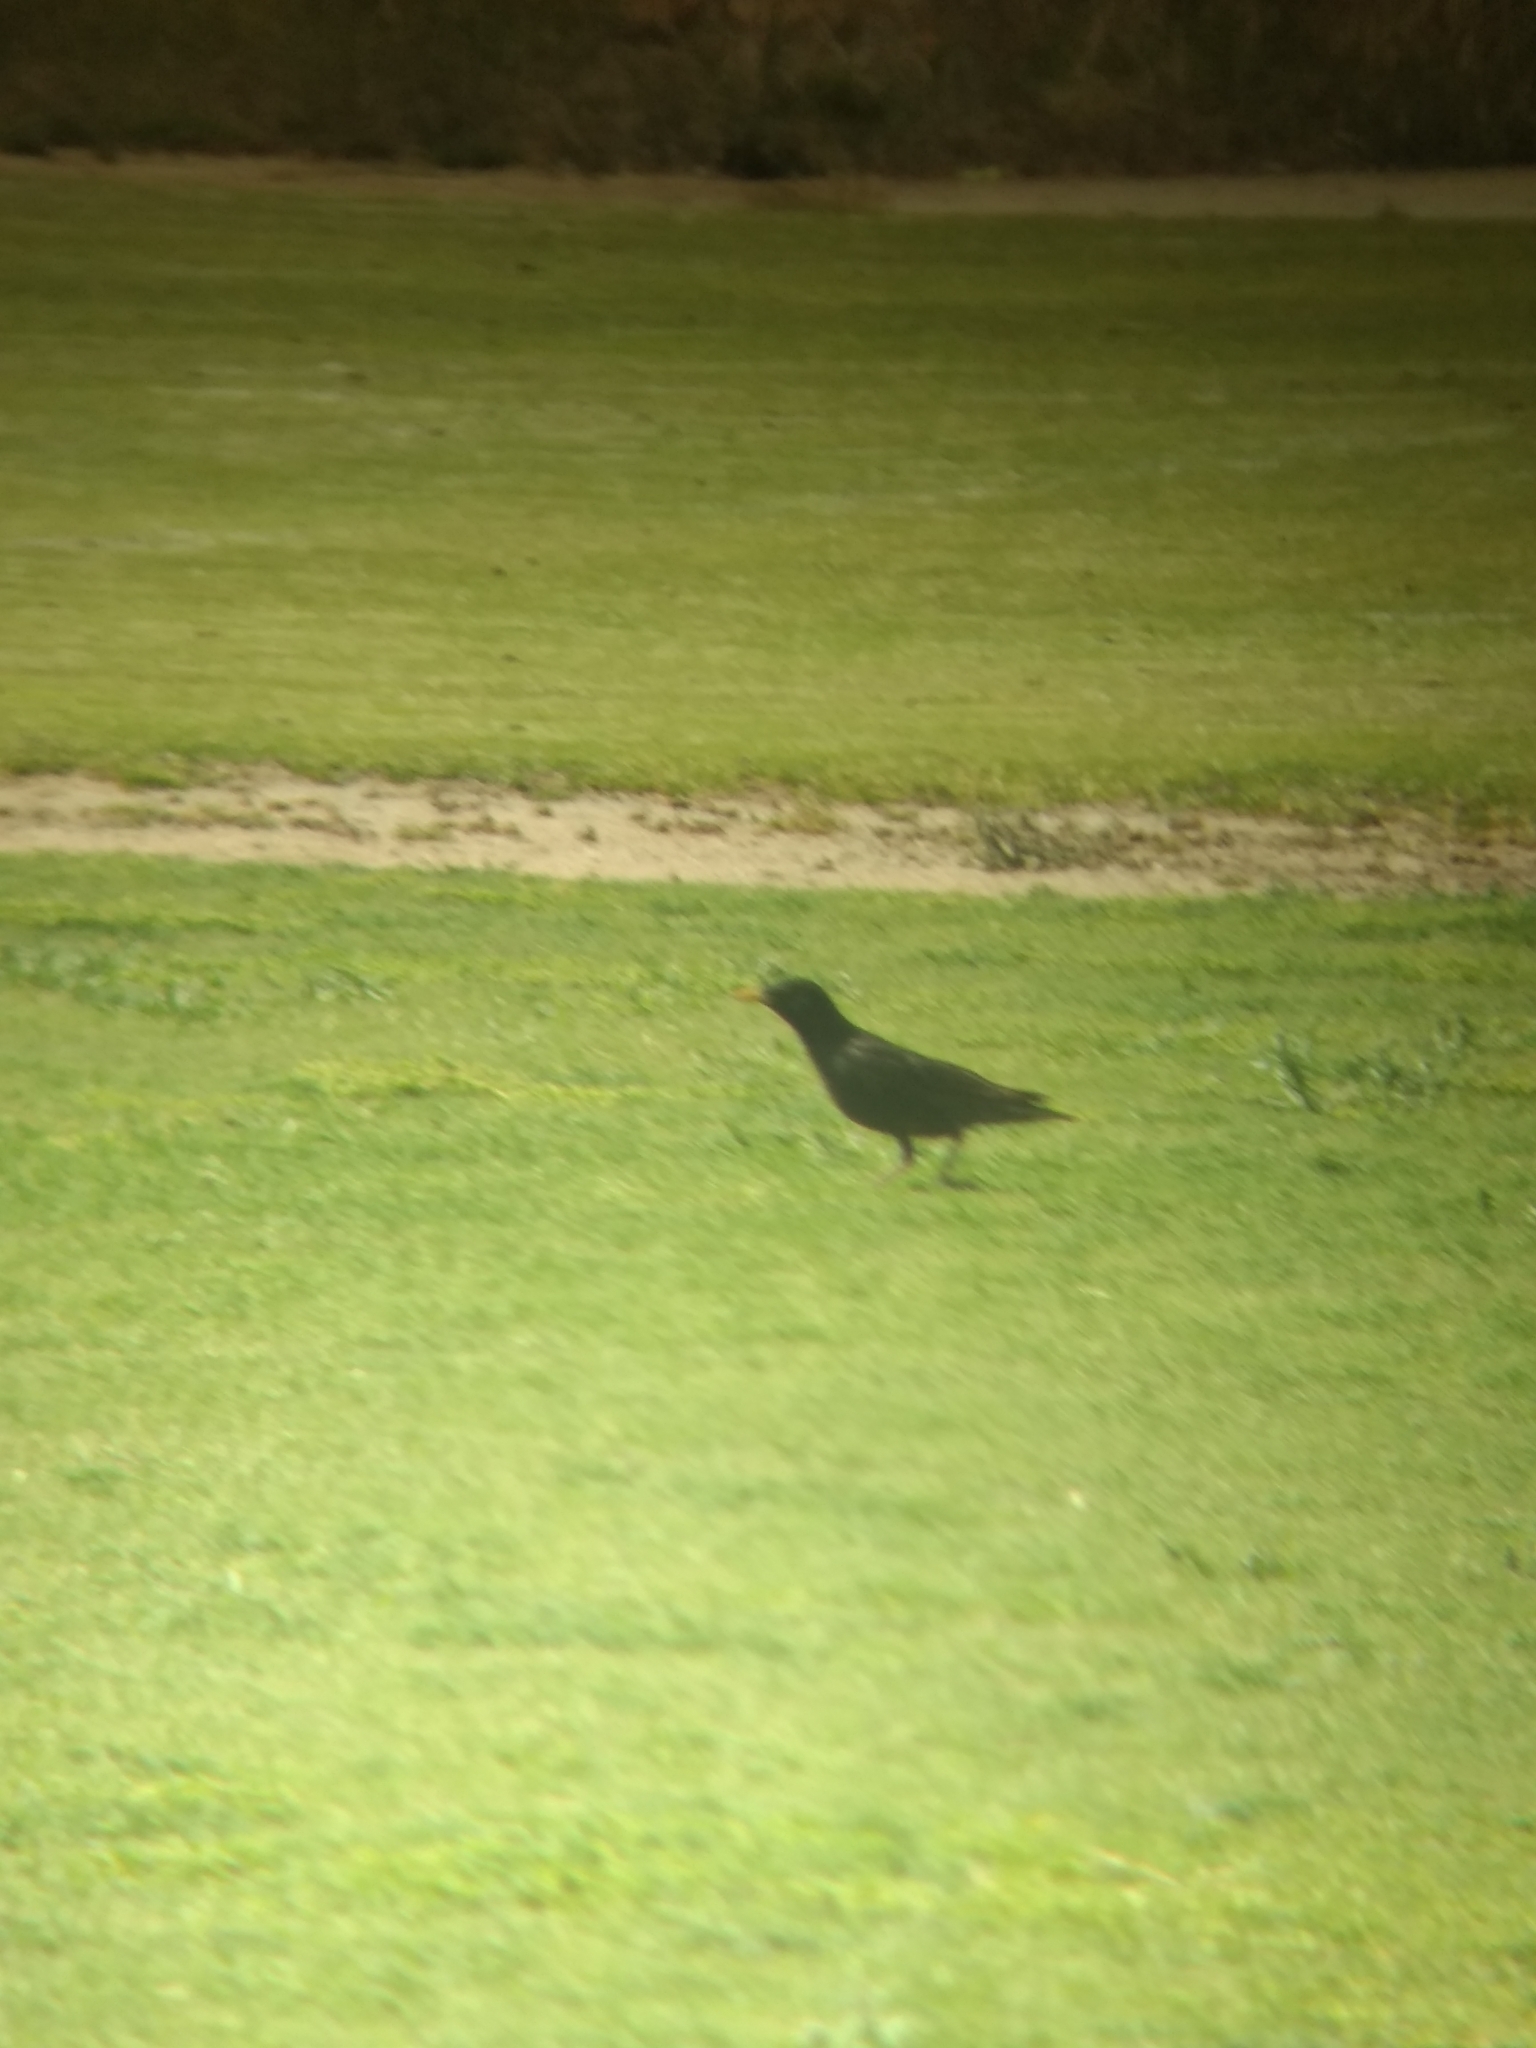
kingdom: Animalia
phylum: Chordata
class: Aves
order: Passeriformes
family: Sturnidae
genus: Sturnus
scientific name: Sturnus vulgaris
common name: Common starling
